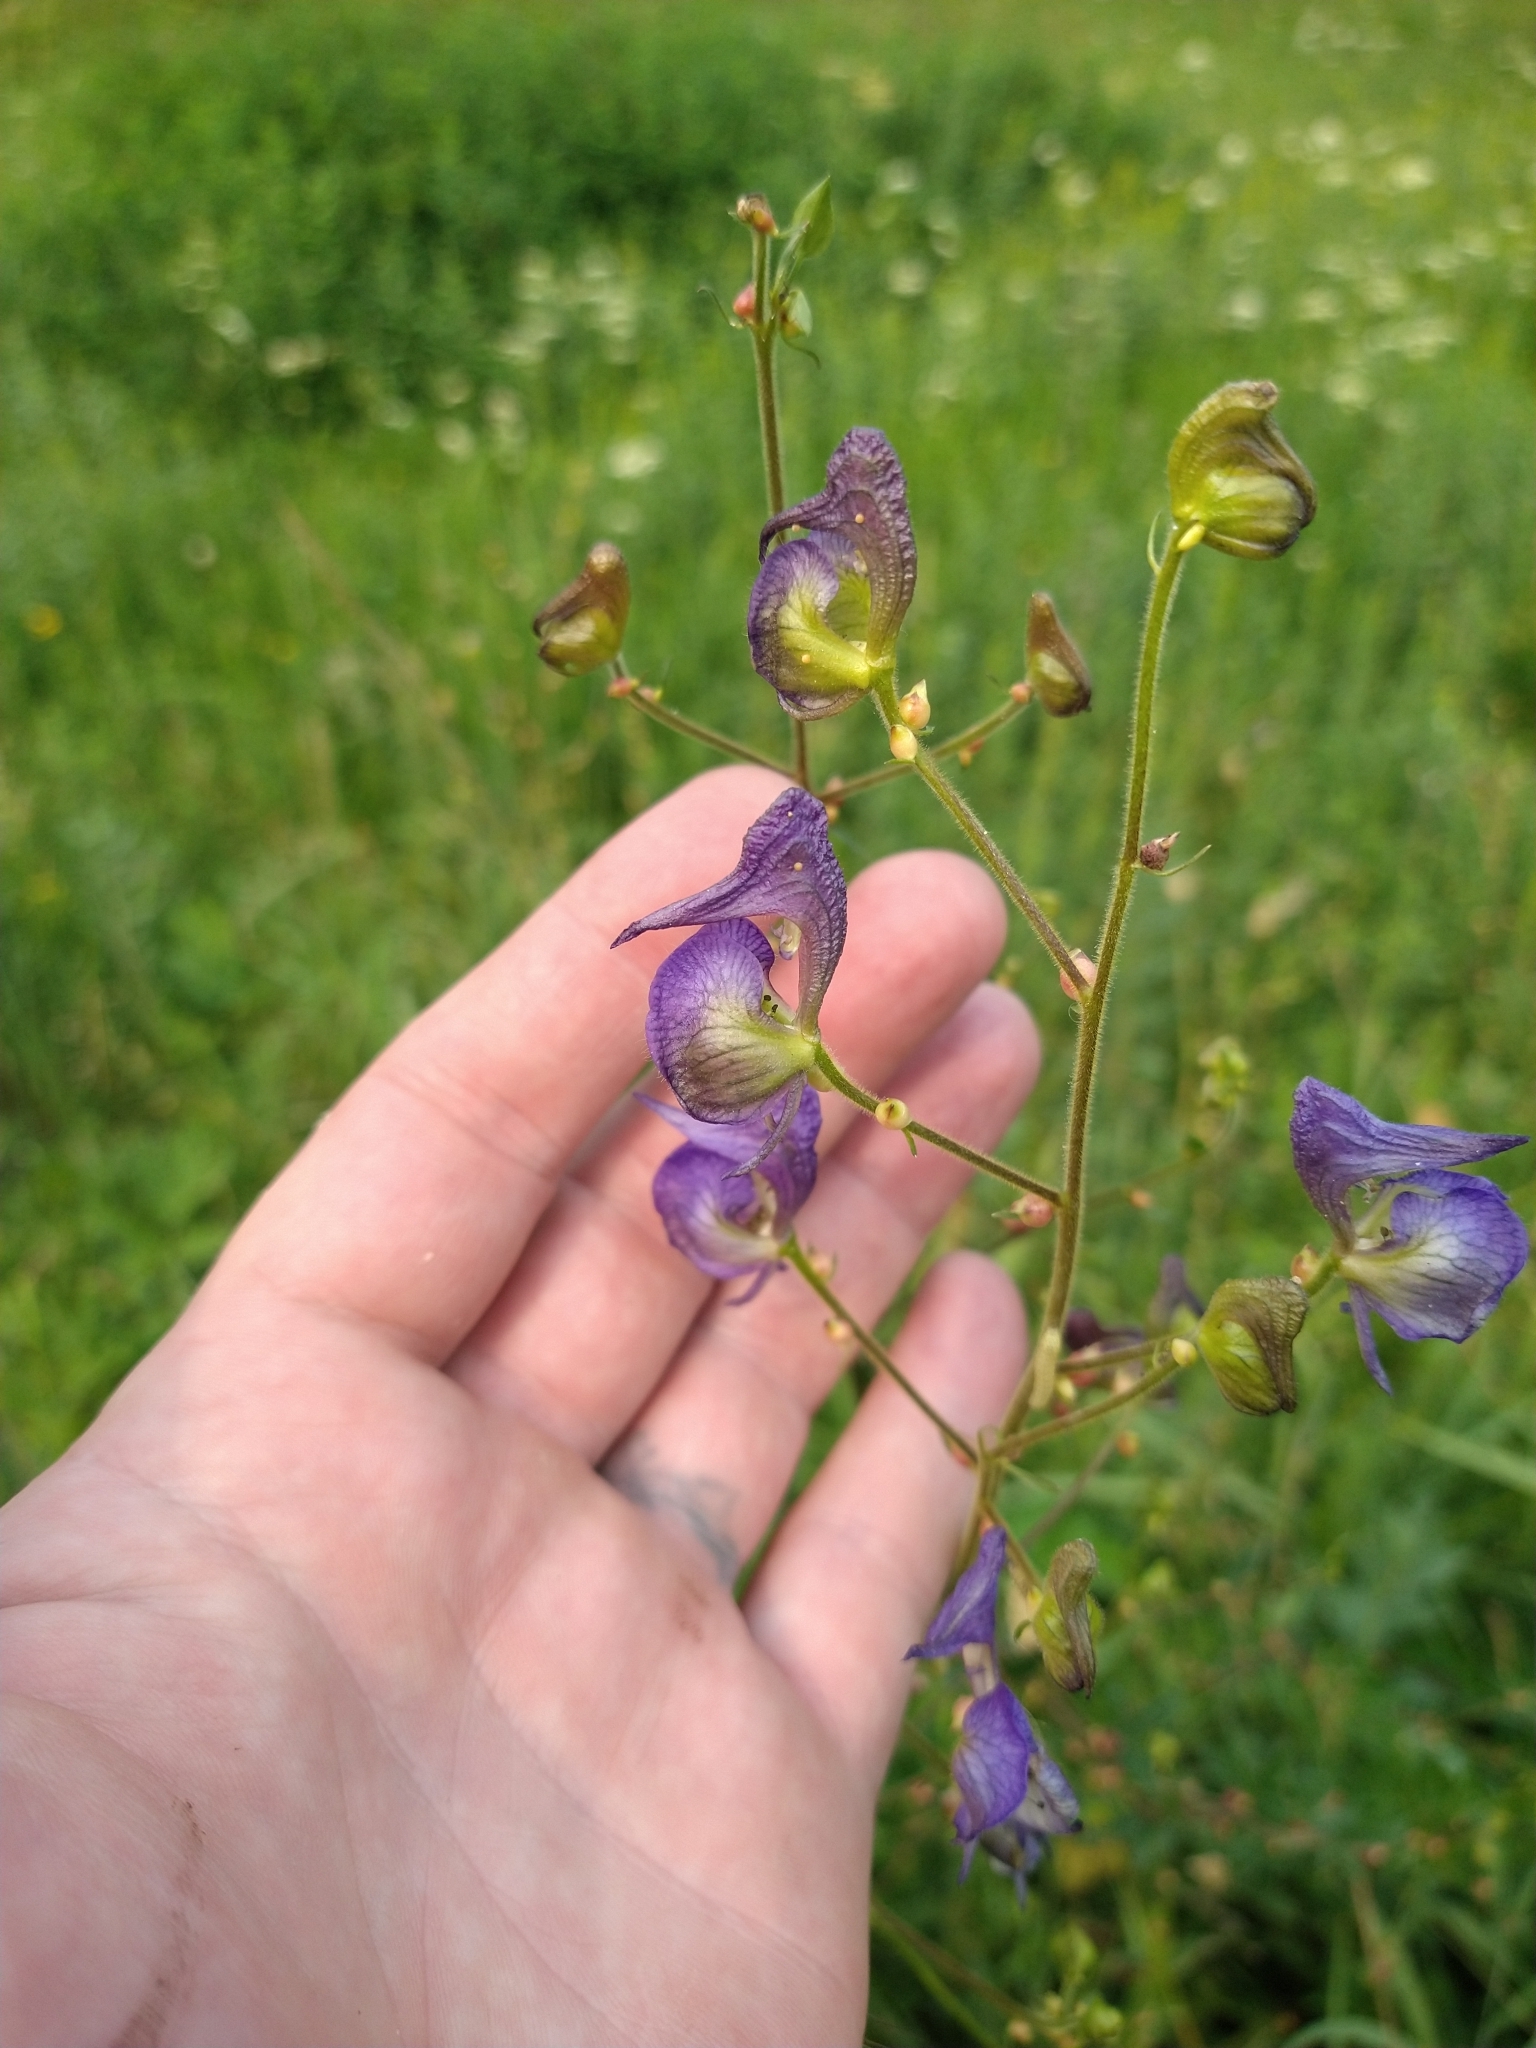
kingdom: Plantae
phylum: Tracheophyta
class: Magnoliopsida
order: Ranunculales
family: Ranunculaceae
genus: Aconitum
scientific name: Aconitum columbianum
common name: Columbia aconite
